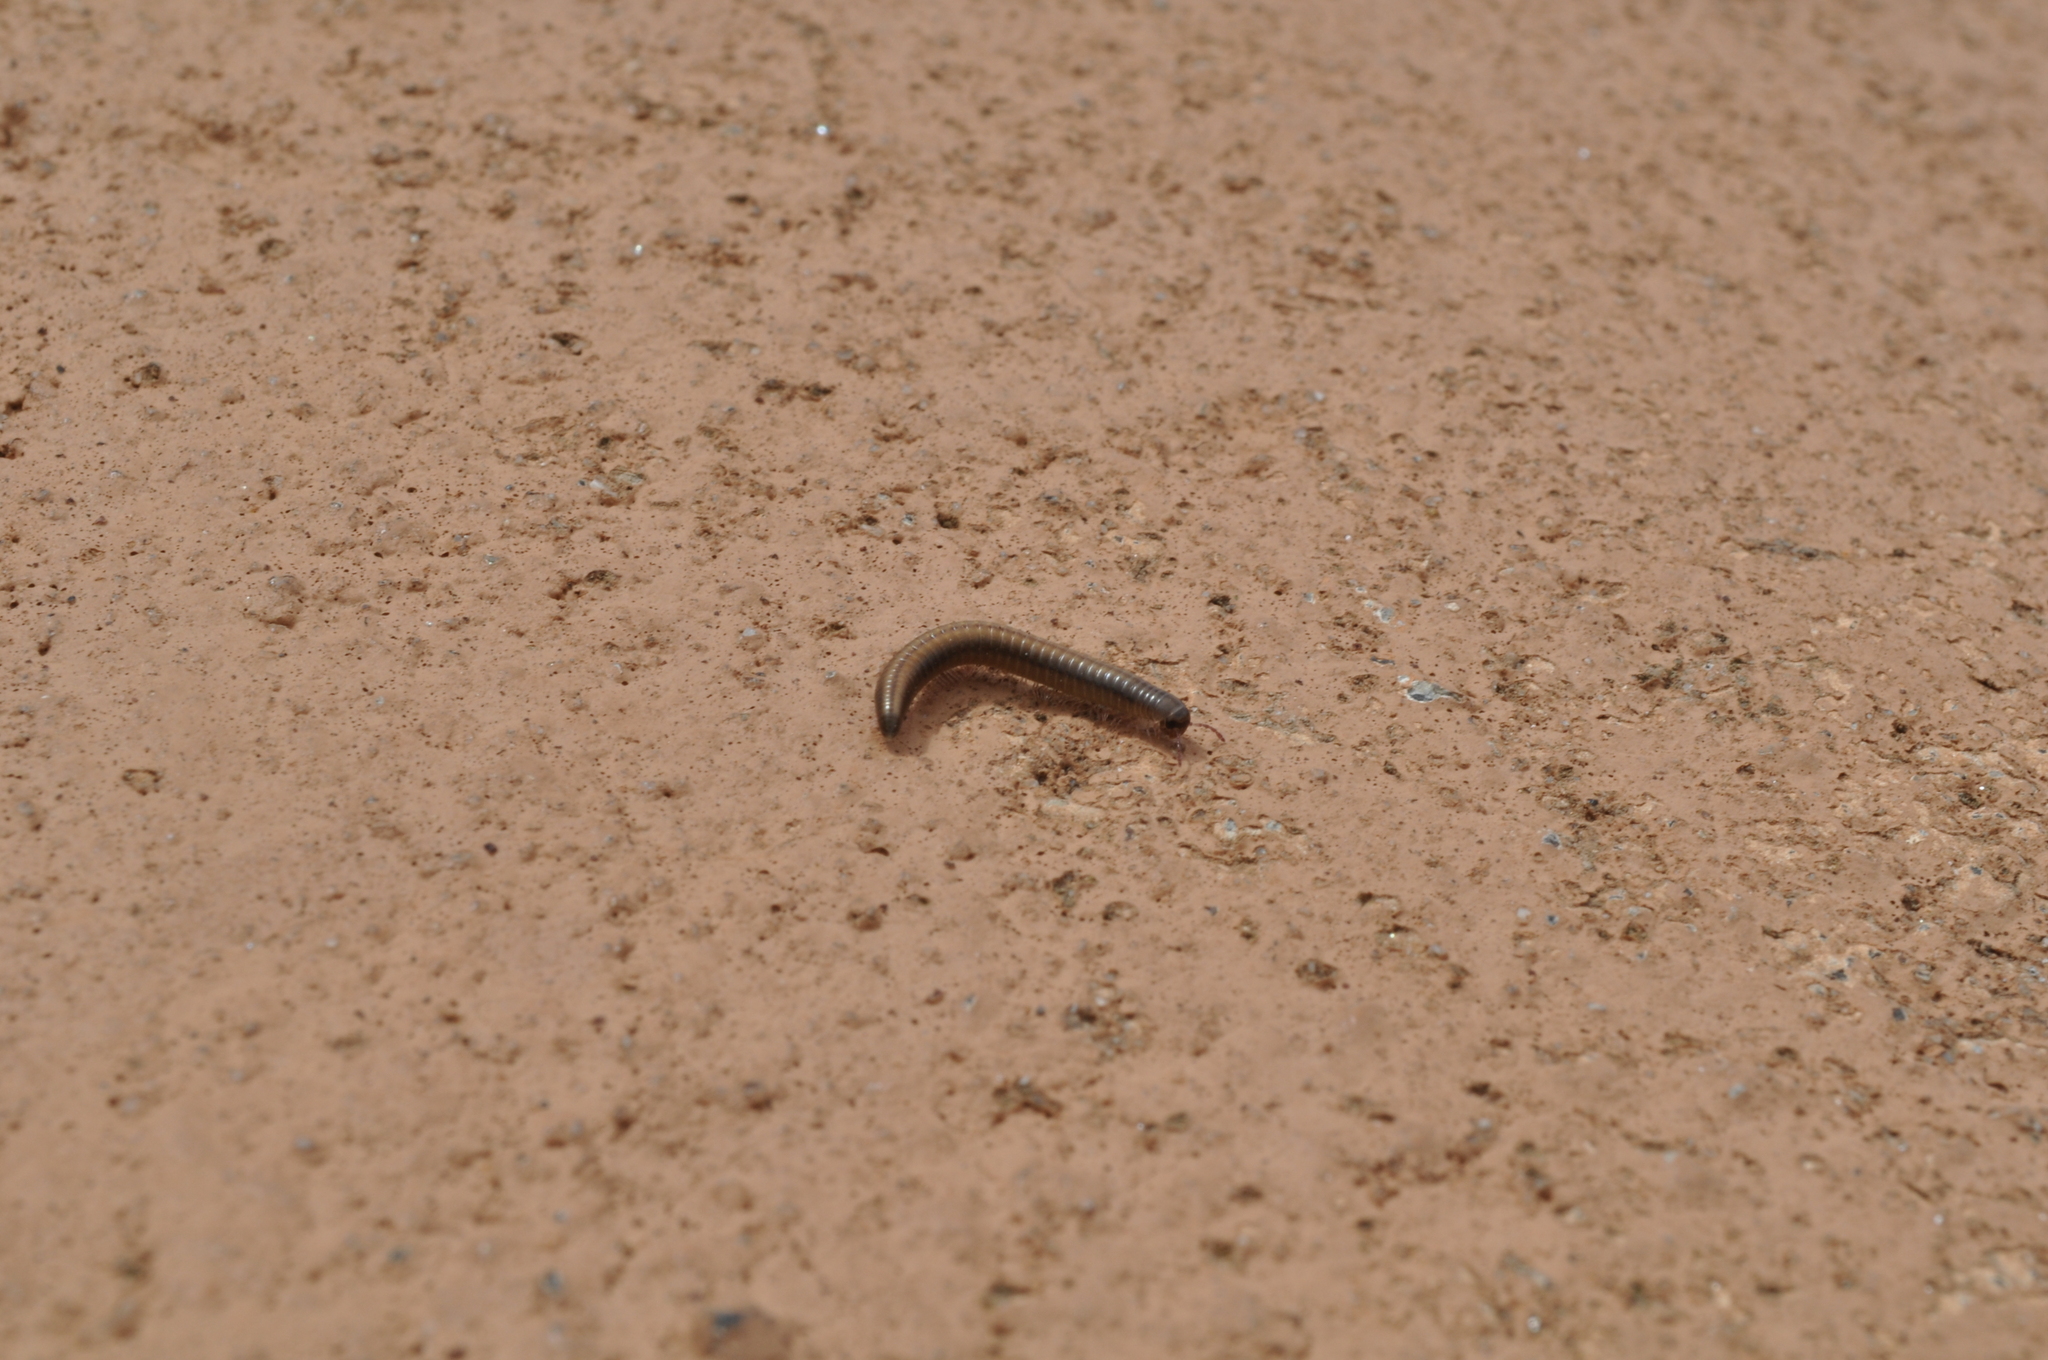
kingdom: Animalia
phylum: Arthropoda
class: Diplopoda
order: Julida
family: Julidae
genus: Ommatoiulus
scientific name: Ommatoiulus moreleti
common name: Portuguese millipede
